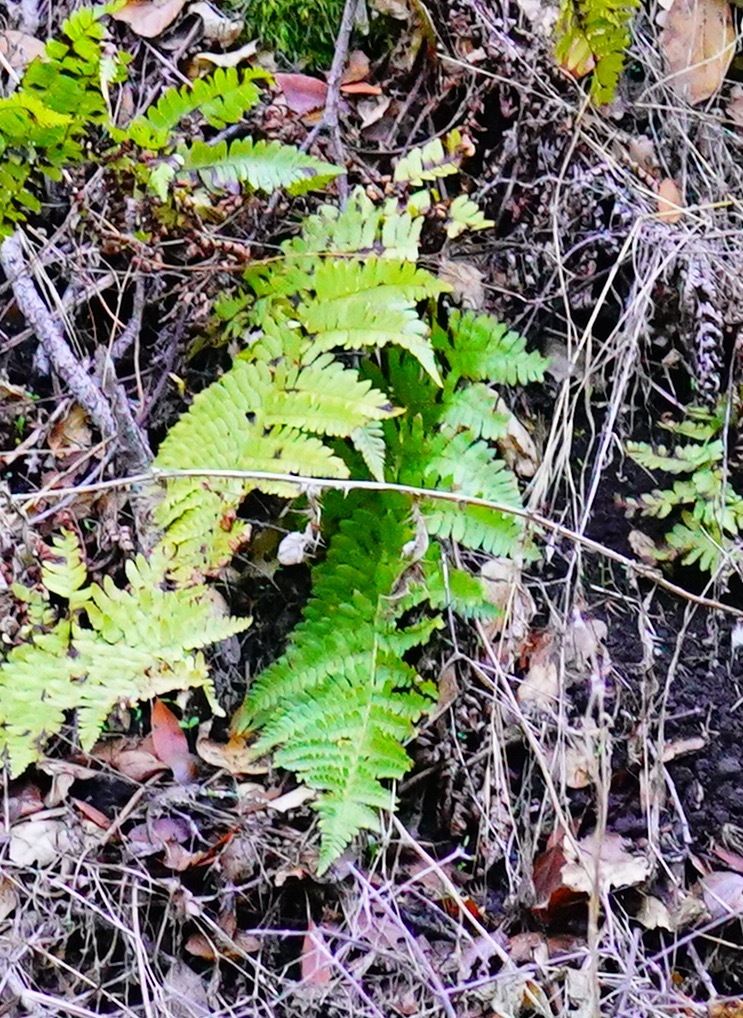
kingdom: Plantae
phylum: Tracheophyta
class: Polypodiopsida
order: Polypodiales
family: Dryopteridaceae
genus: Dryopteris
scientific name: Dryopteris arguta
